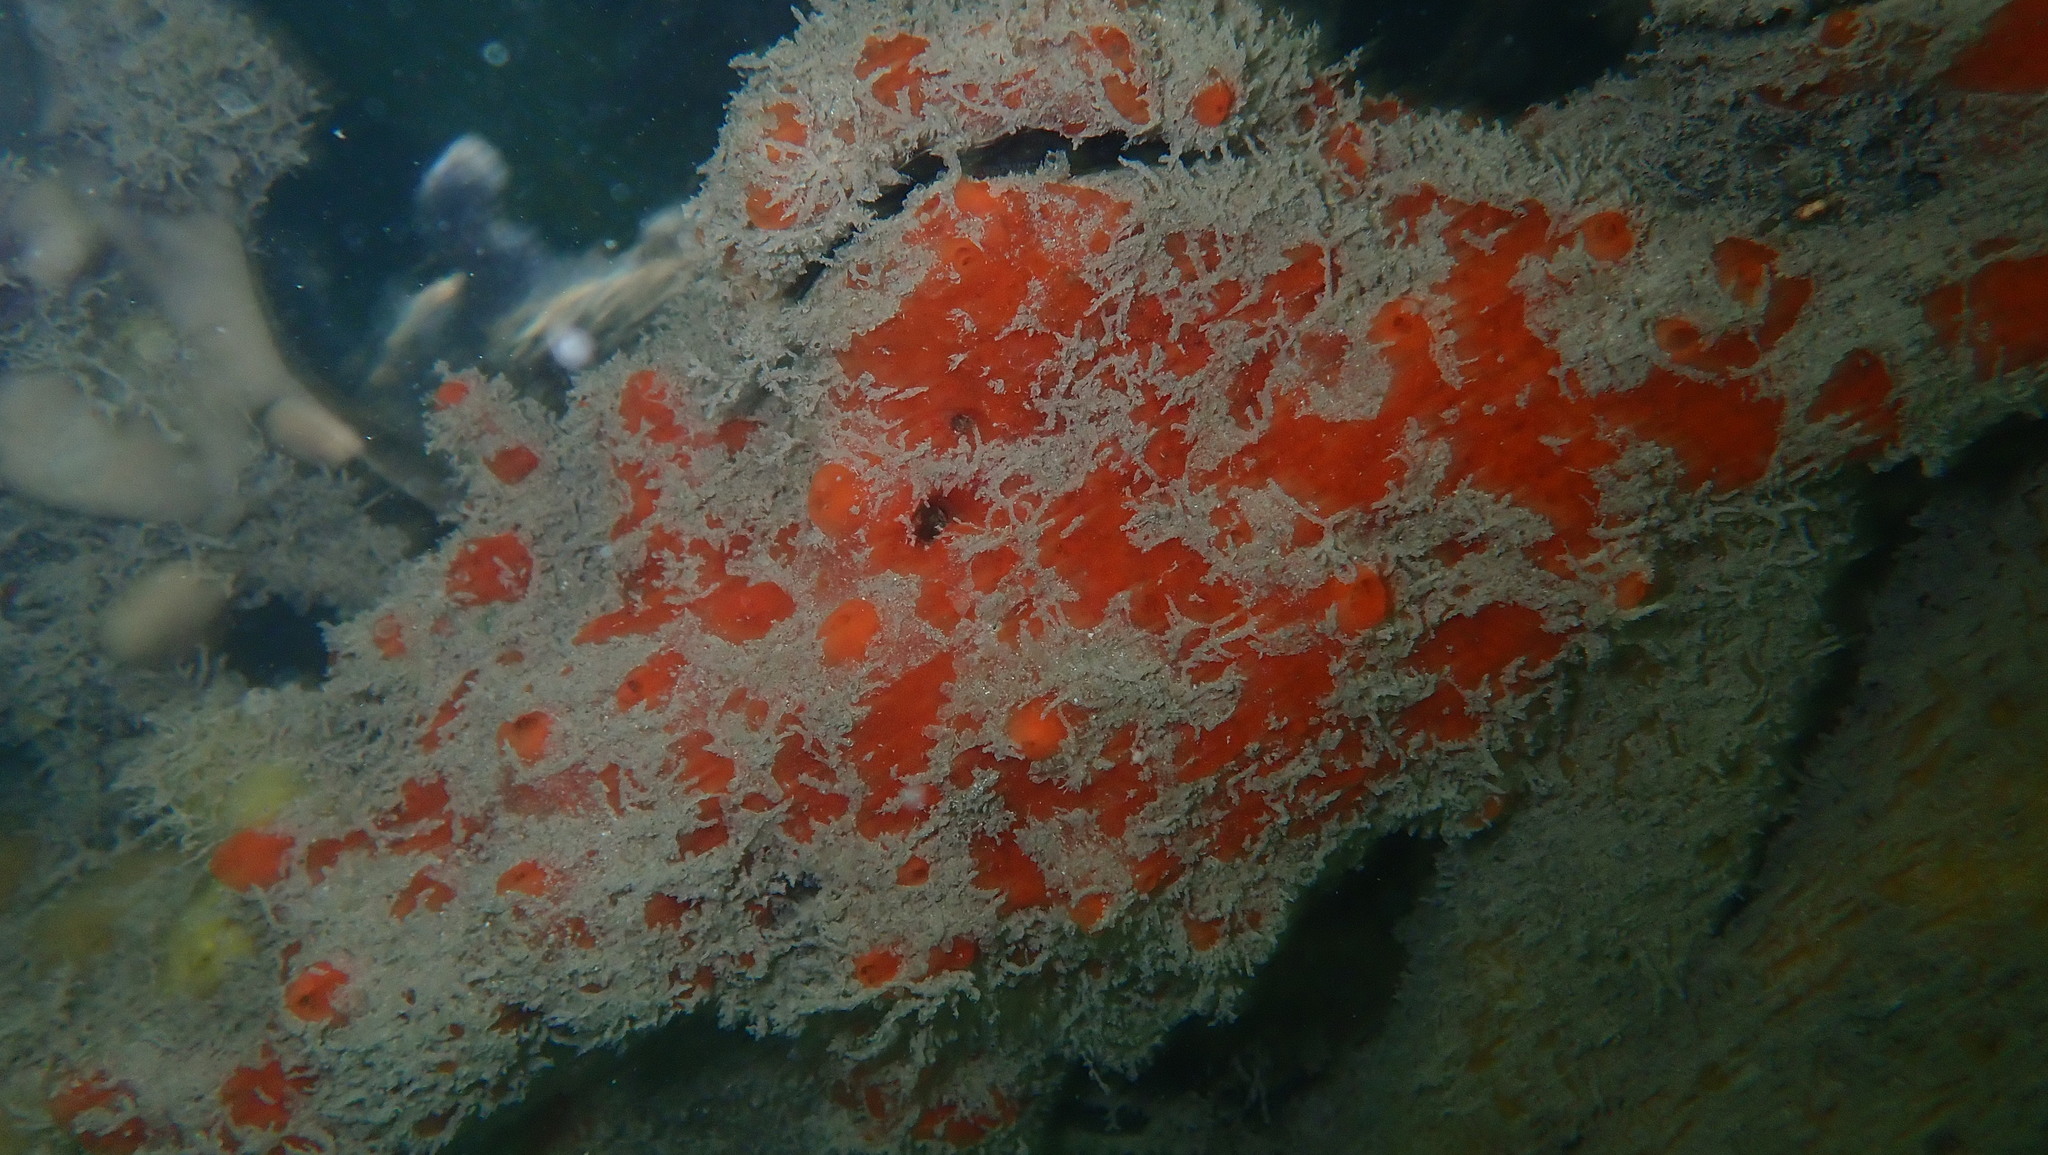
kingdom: Animalia
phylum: Porifera
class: Demospongiae
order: Poecilosclerida
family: Tedaniidae
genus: Tedania
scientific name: Tedania ignis
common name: Sponge
